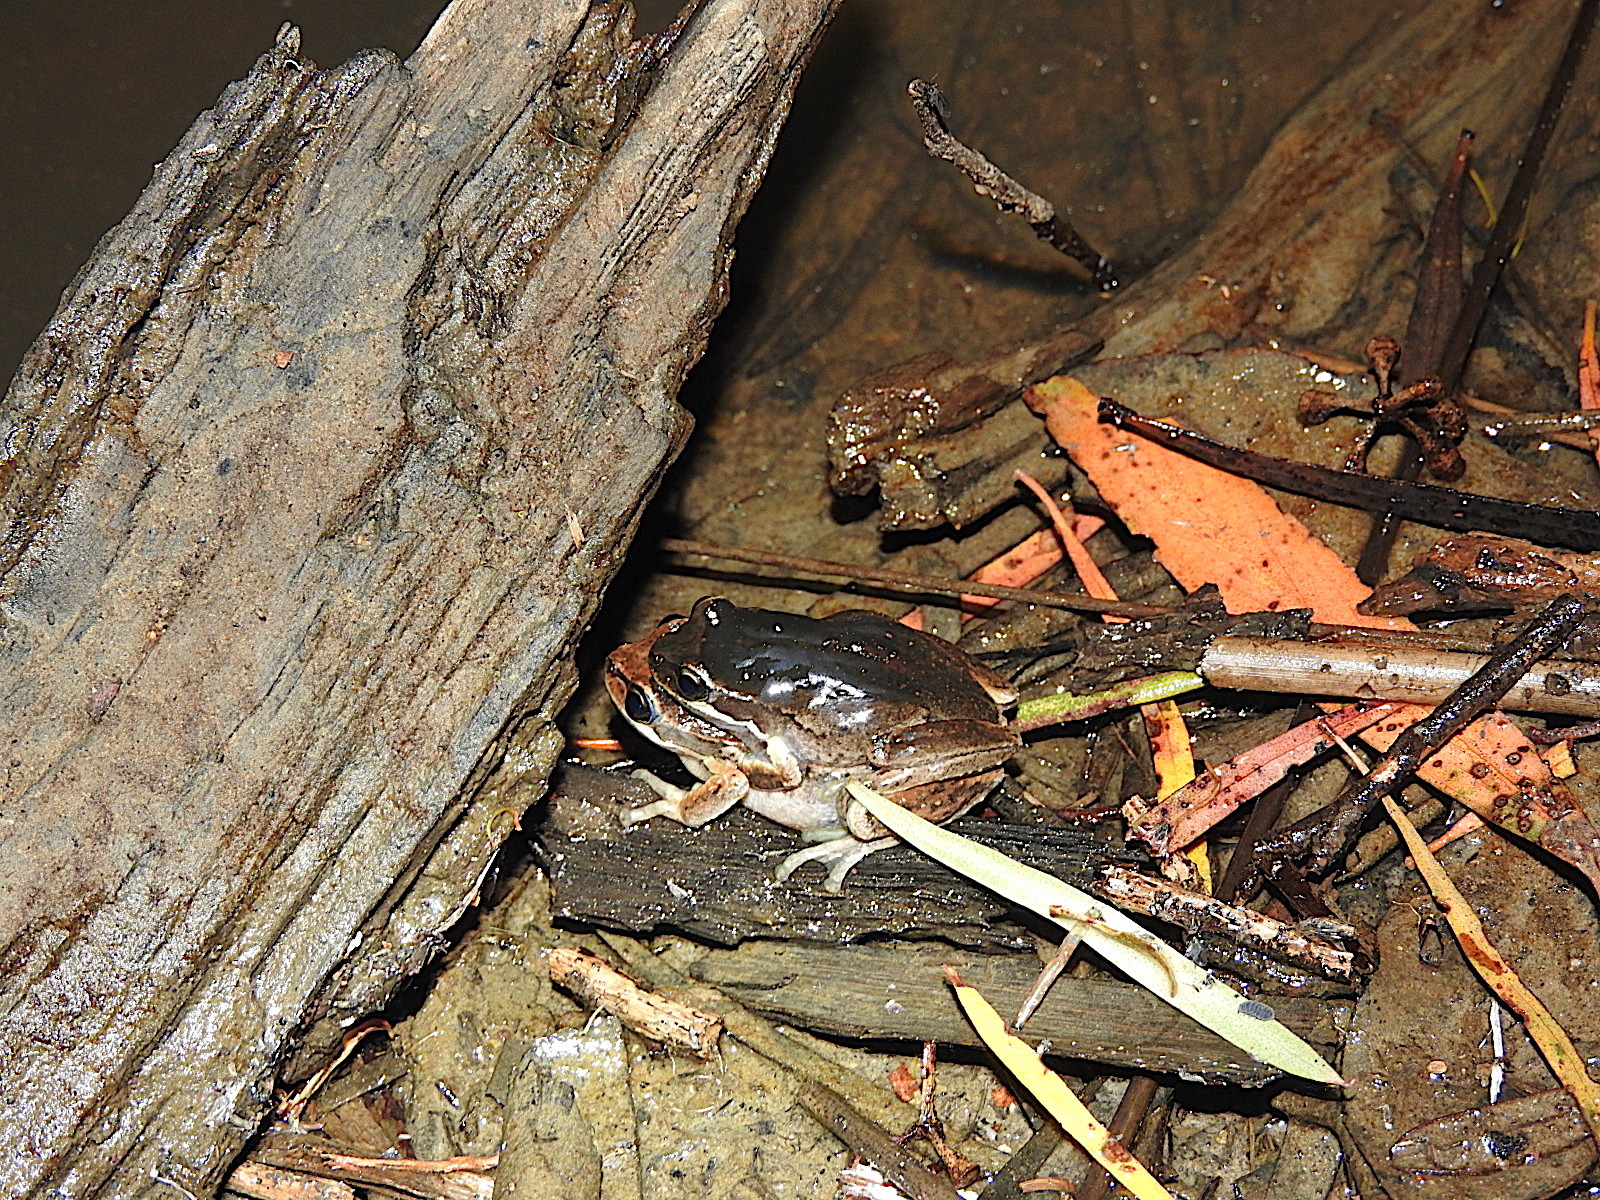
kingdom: Animalia
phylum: Chordata
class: Amphibia
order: Anura
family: Pelodryadidae
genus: Litoria
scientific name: Litoria ewingii
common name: Southern brown tree frog
